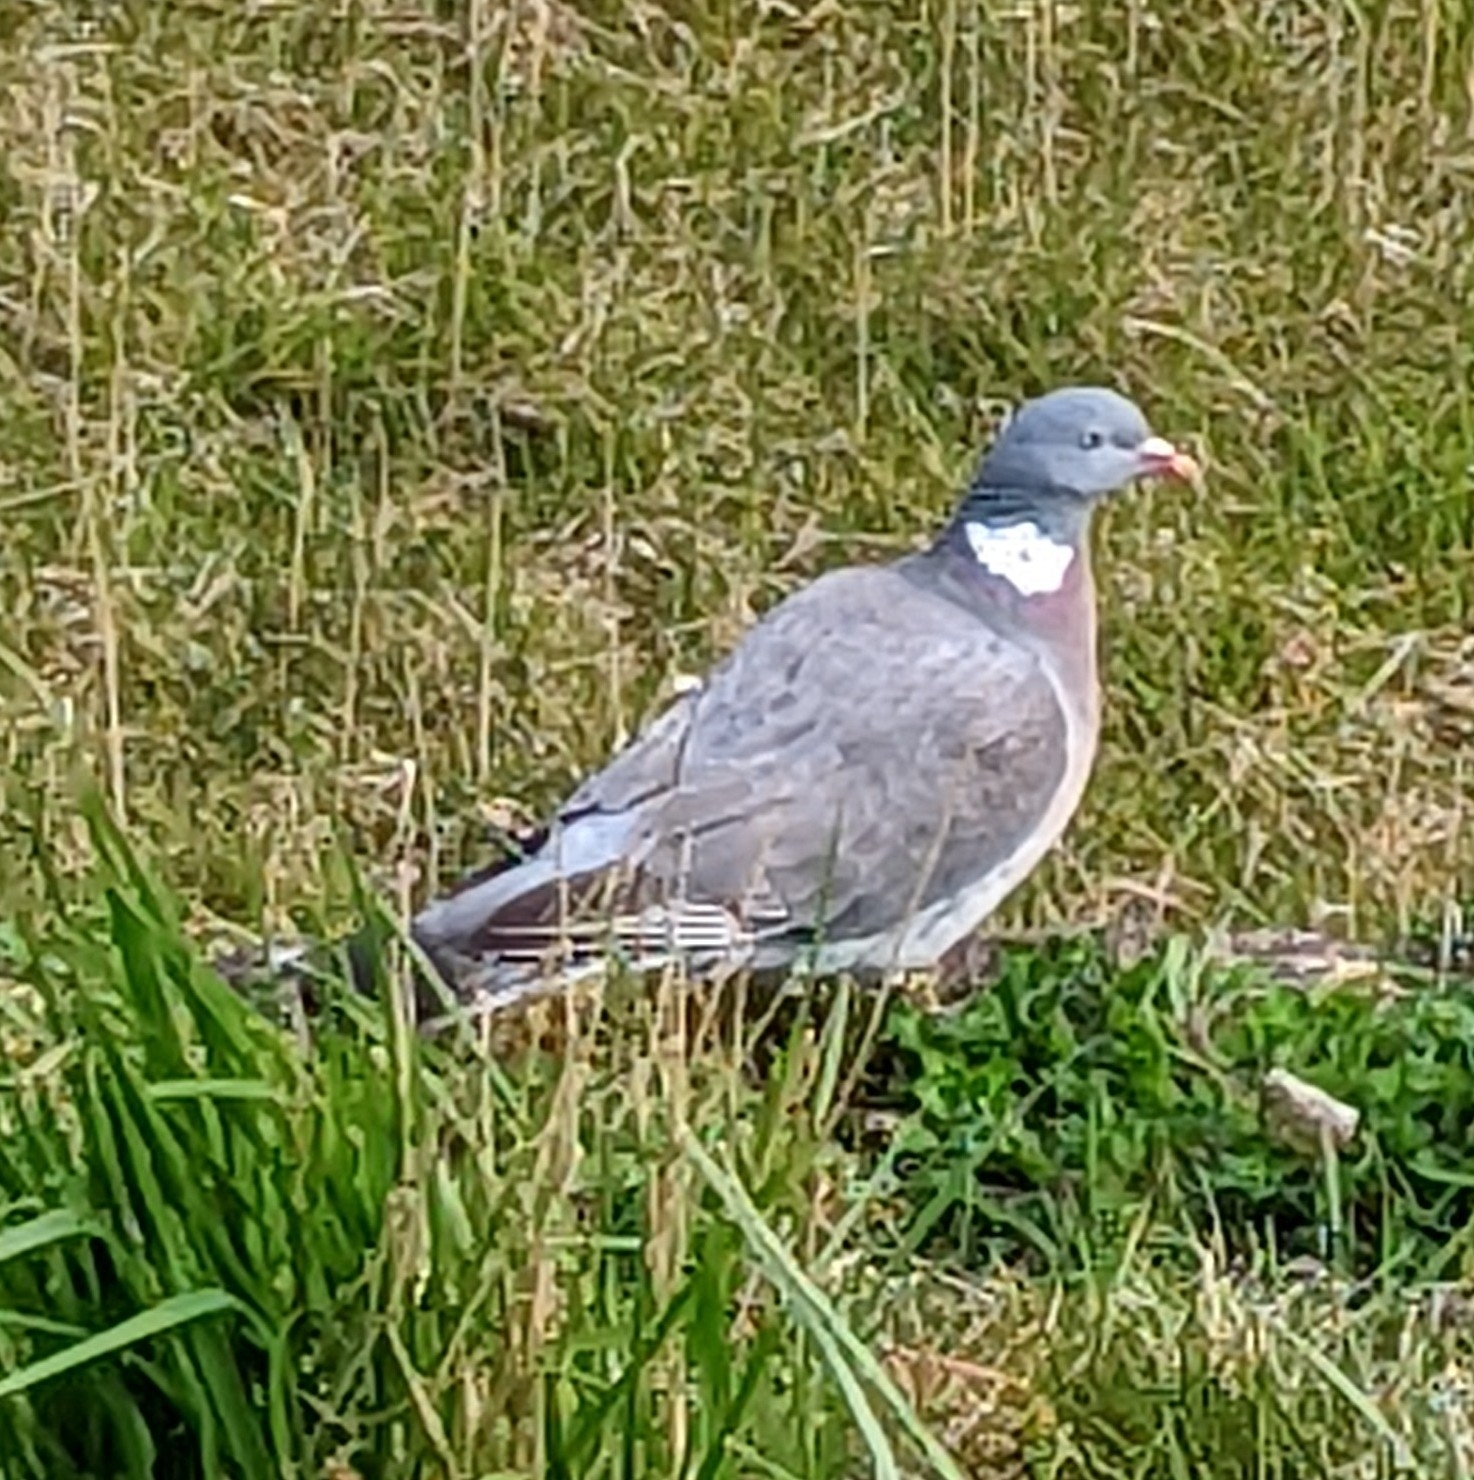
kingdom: Animalia
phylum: Chordata
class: Aves
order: Columbiformes
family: Columbidae
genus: Columba
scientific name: Columba palumbus
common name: Common wood pigeon
